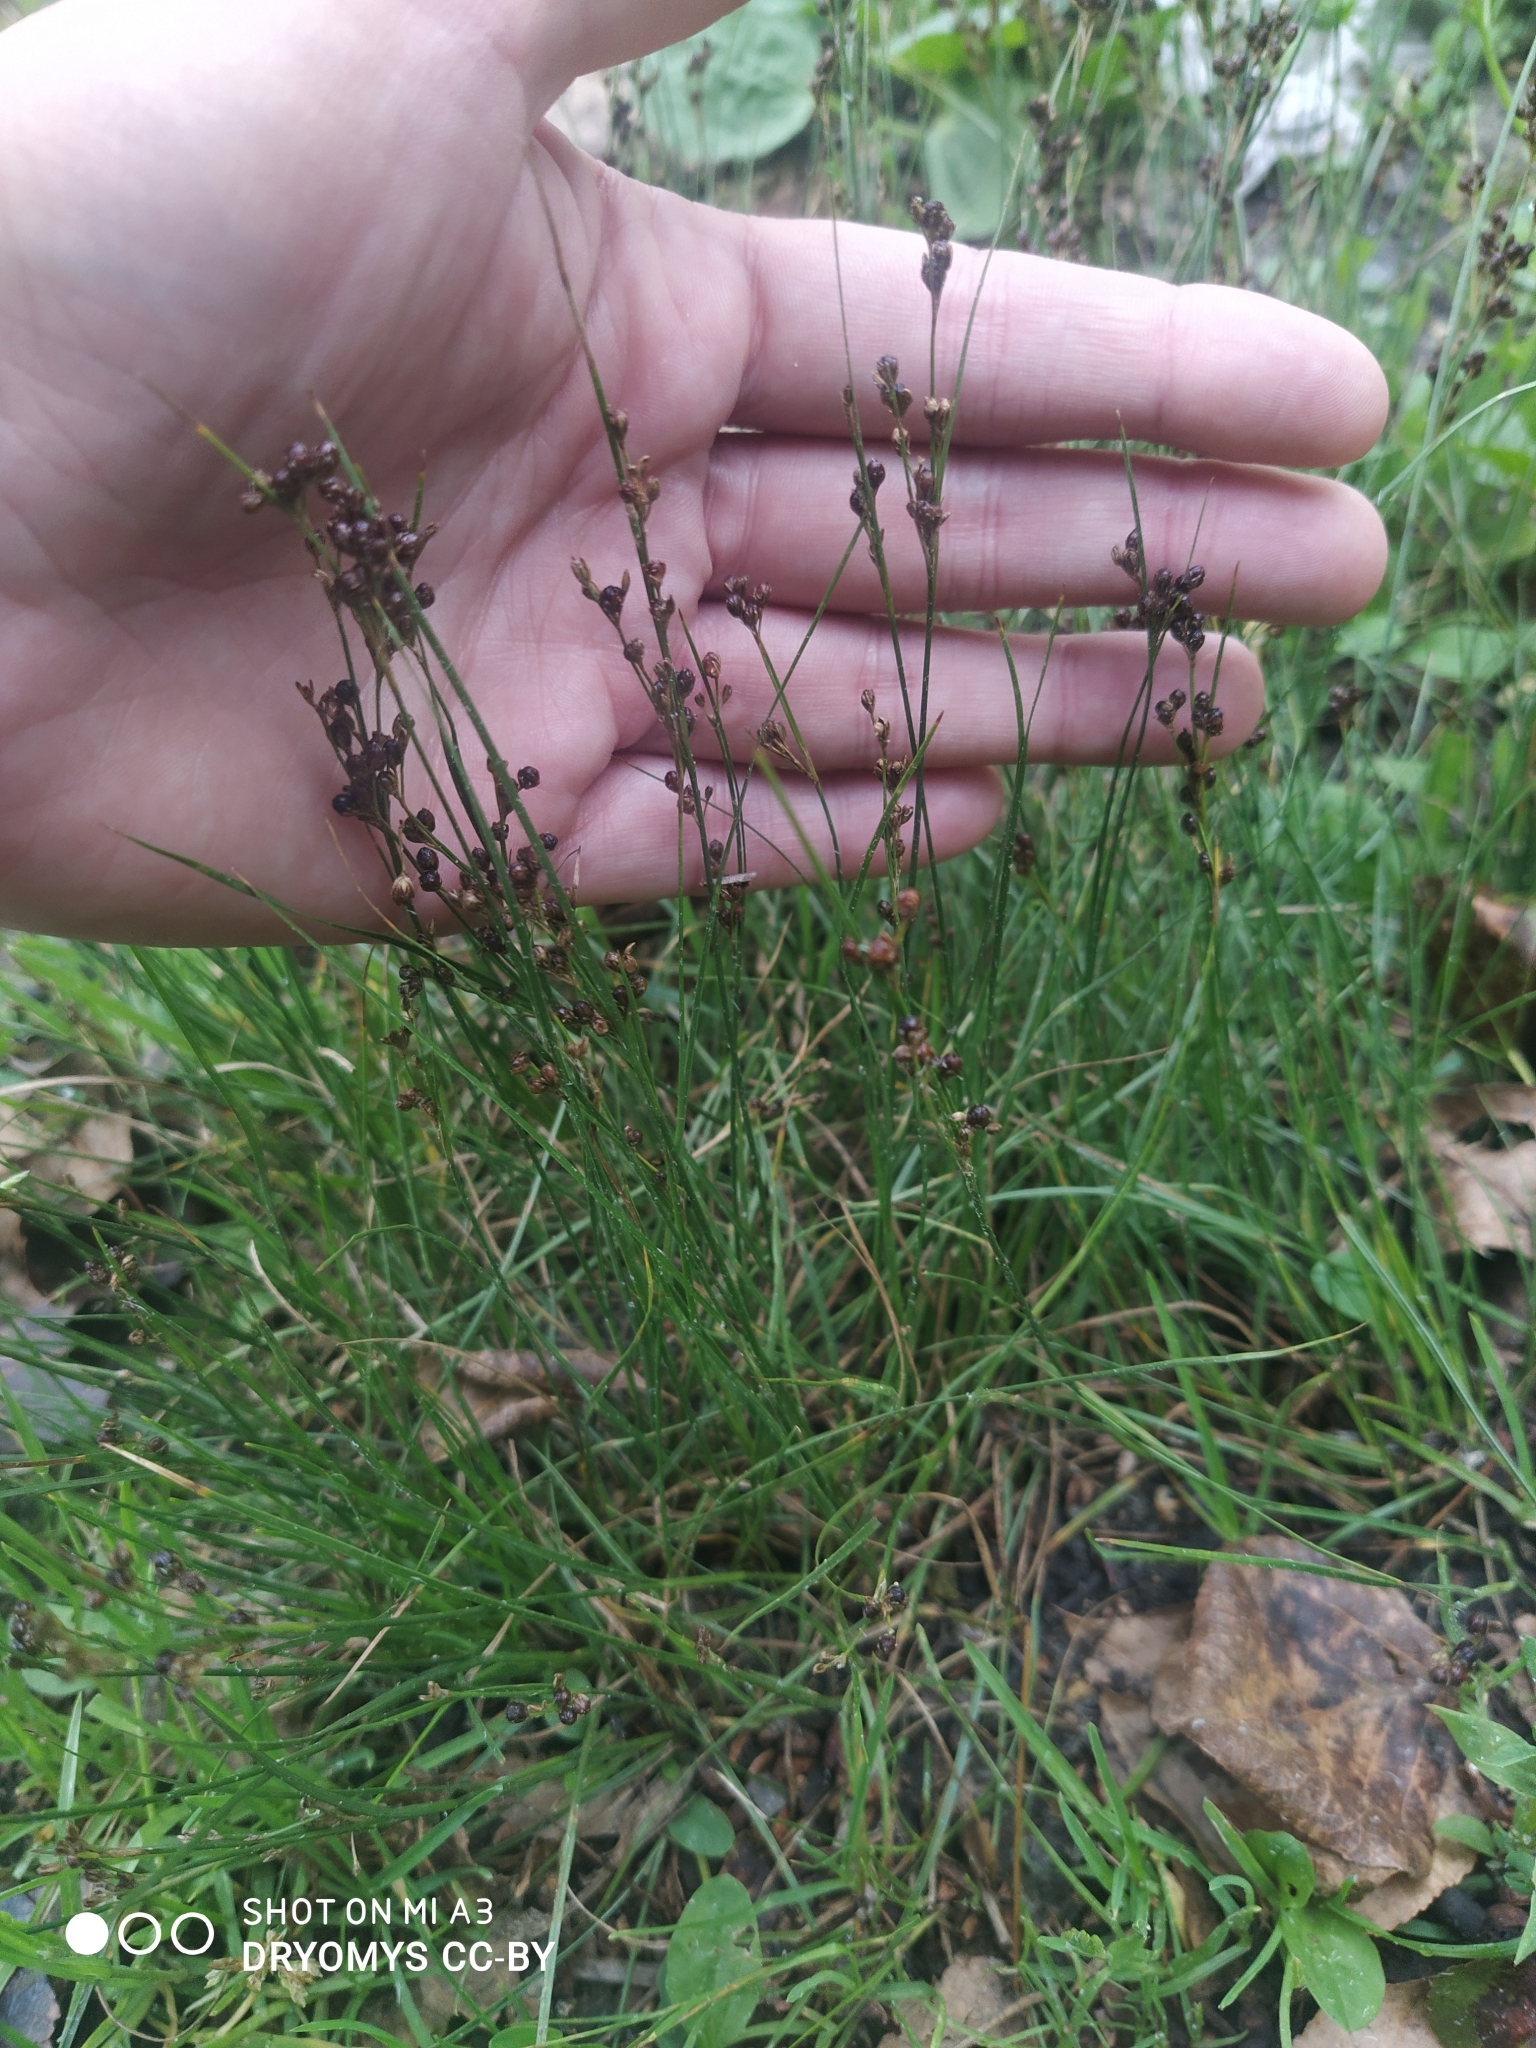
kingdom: Plantae
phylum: Tracheophyta
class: Liliopsida
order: Poales
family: Juncaceae
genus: Juncus
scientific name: Juncus compressus
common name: Round-fruited rush
